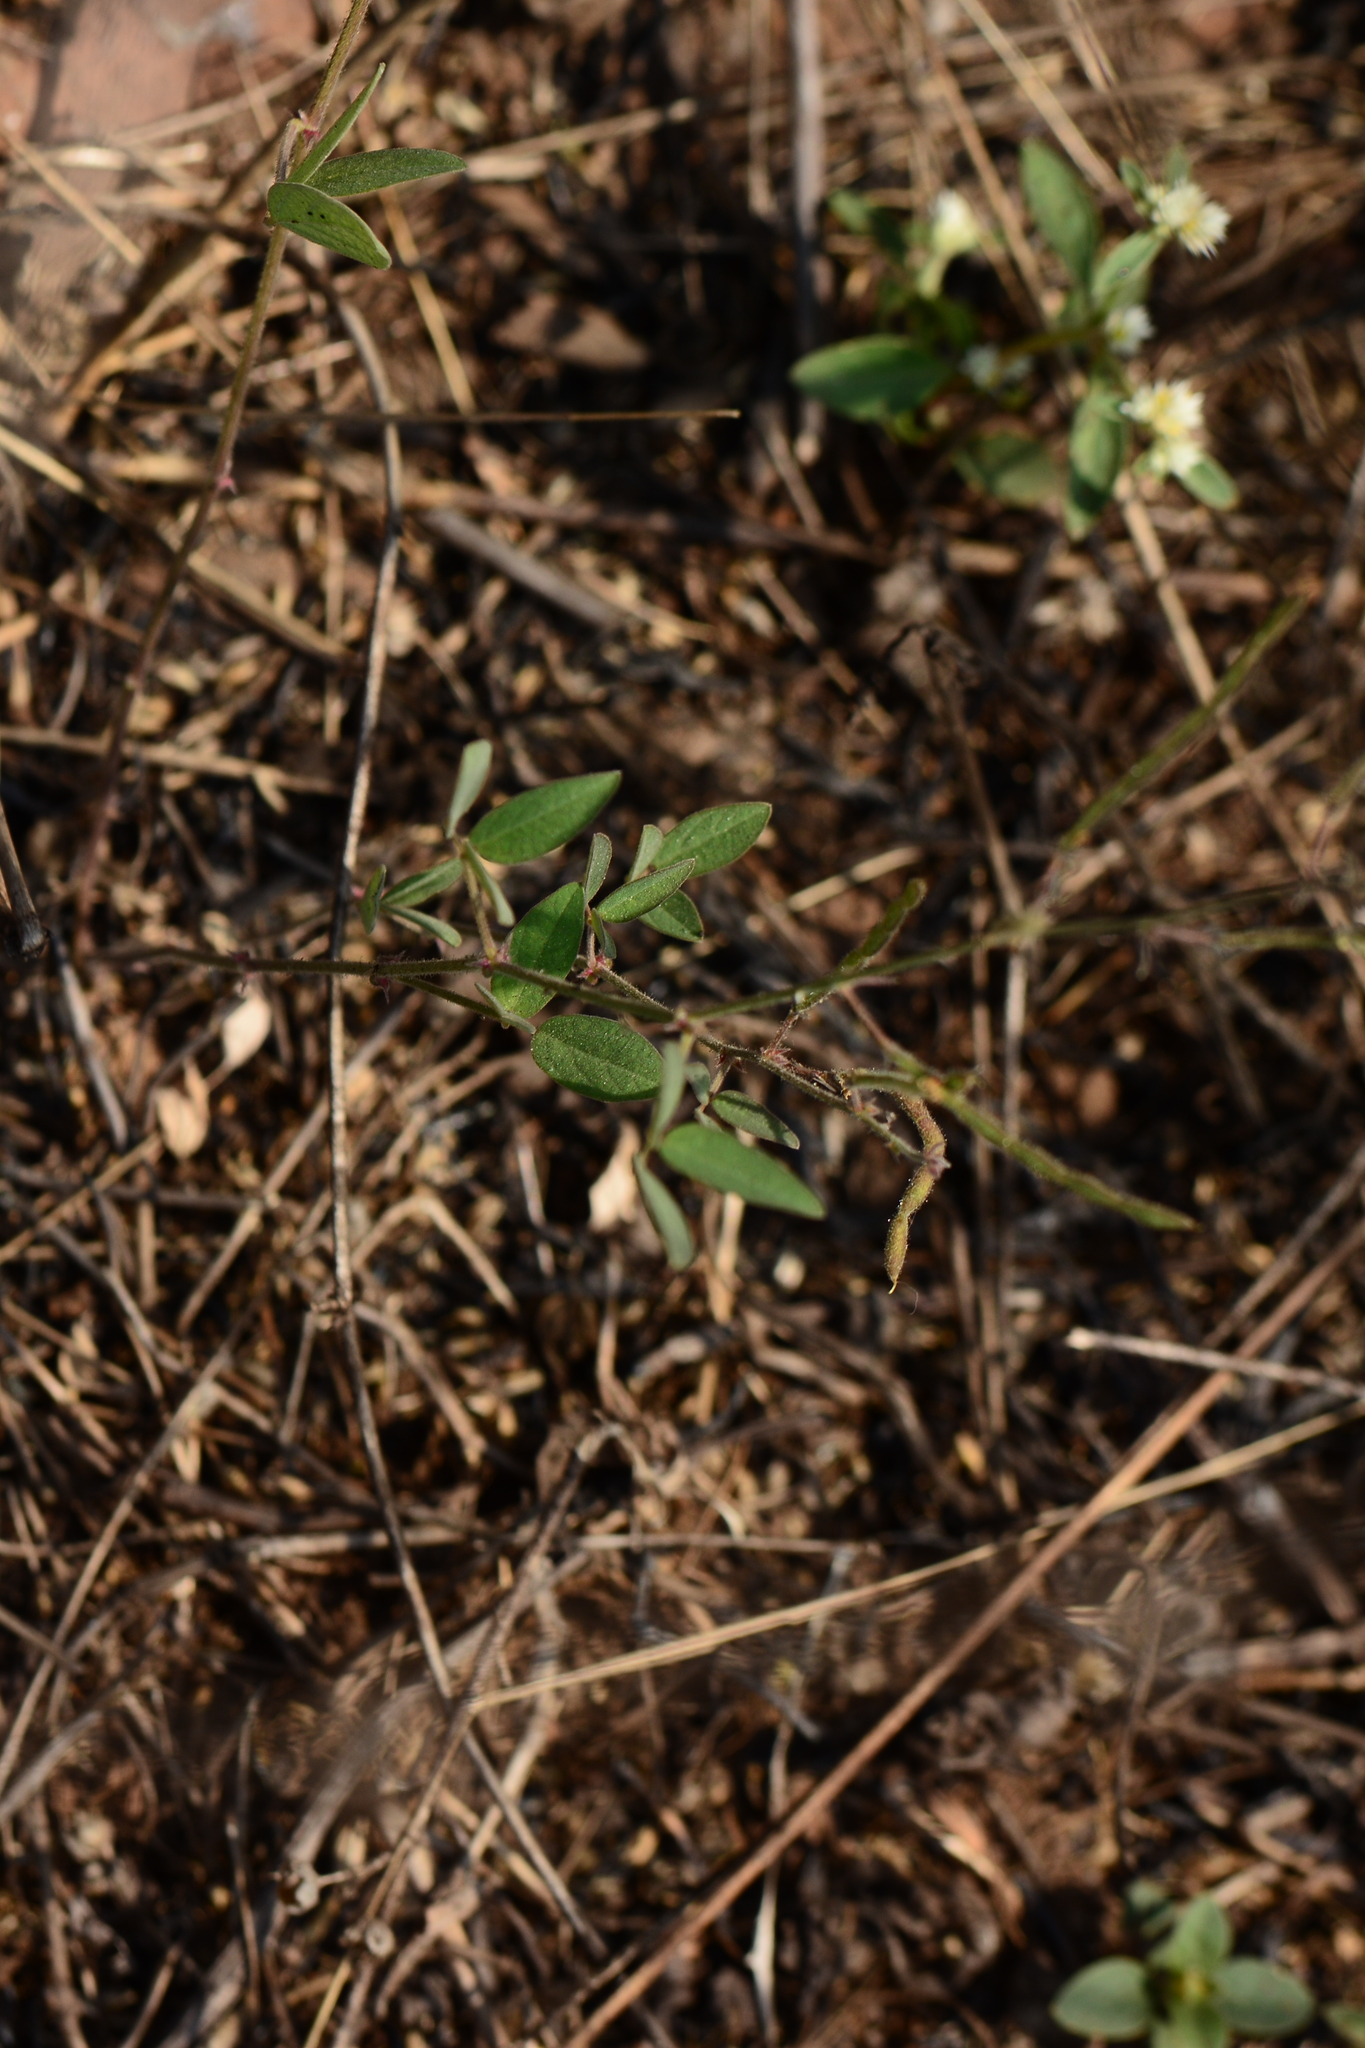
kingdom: Plantae
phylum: Tracheophyta
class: Magnoliopsida
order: Fabales
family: Fabaceae
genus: Desmodium
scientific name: Desmodium scorpiurus
